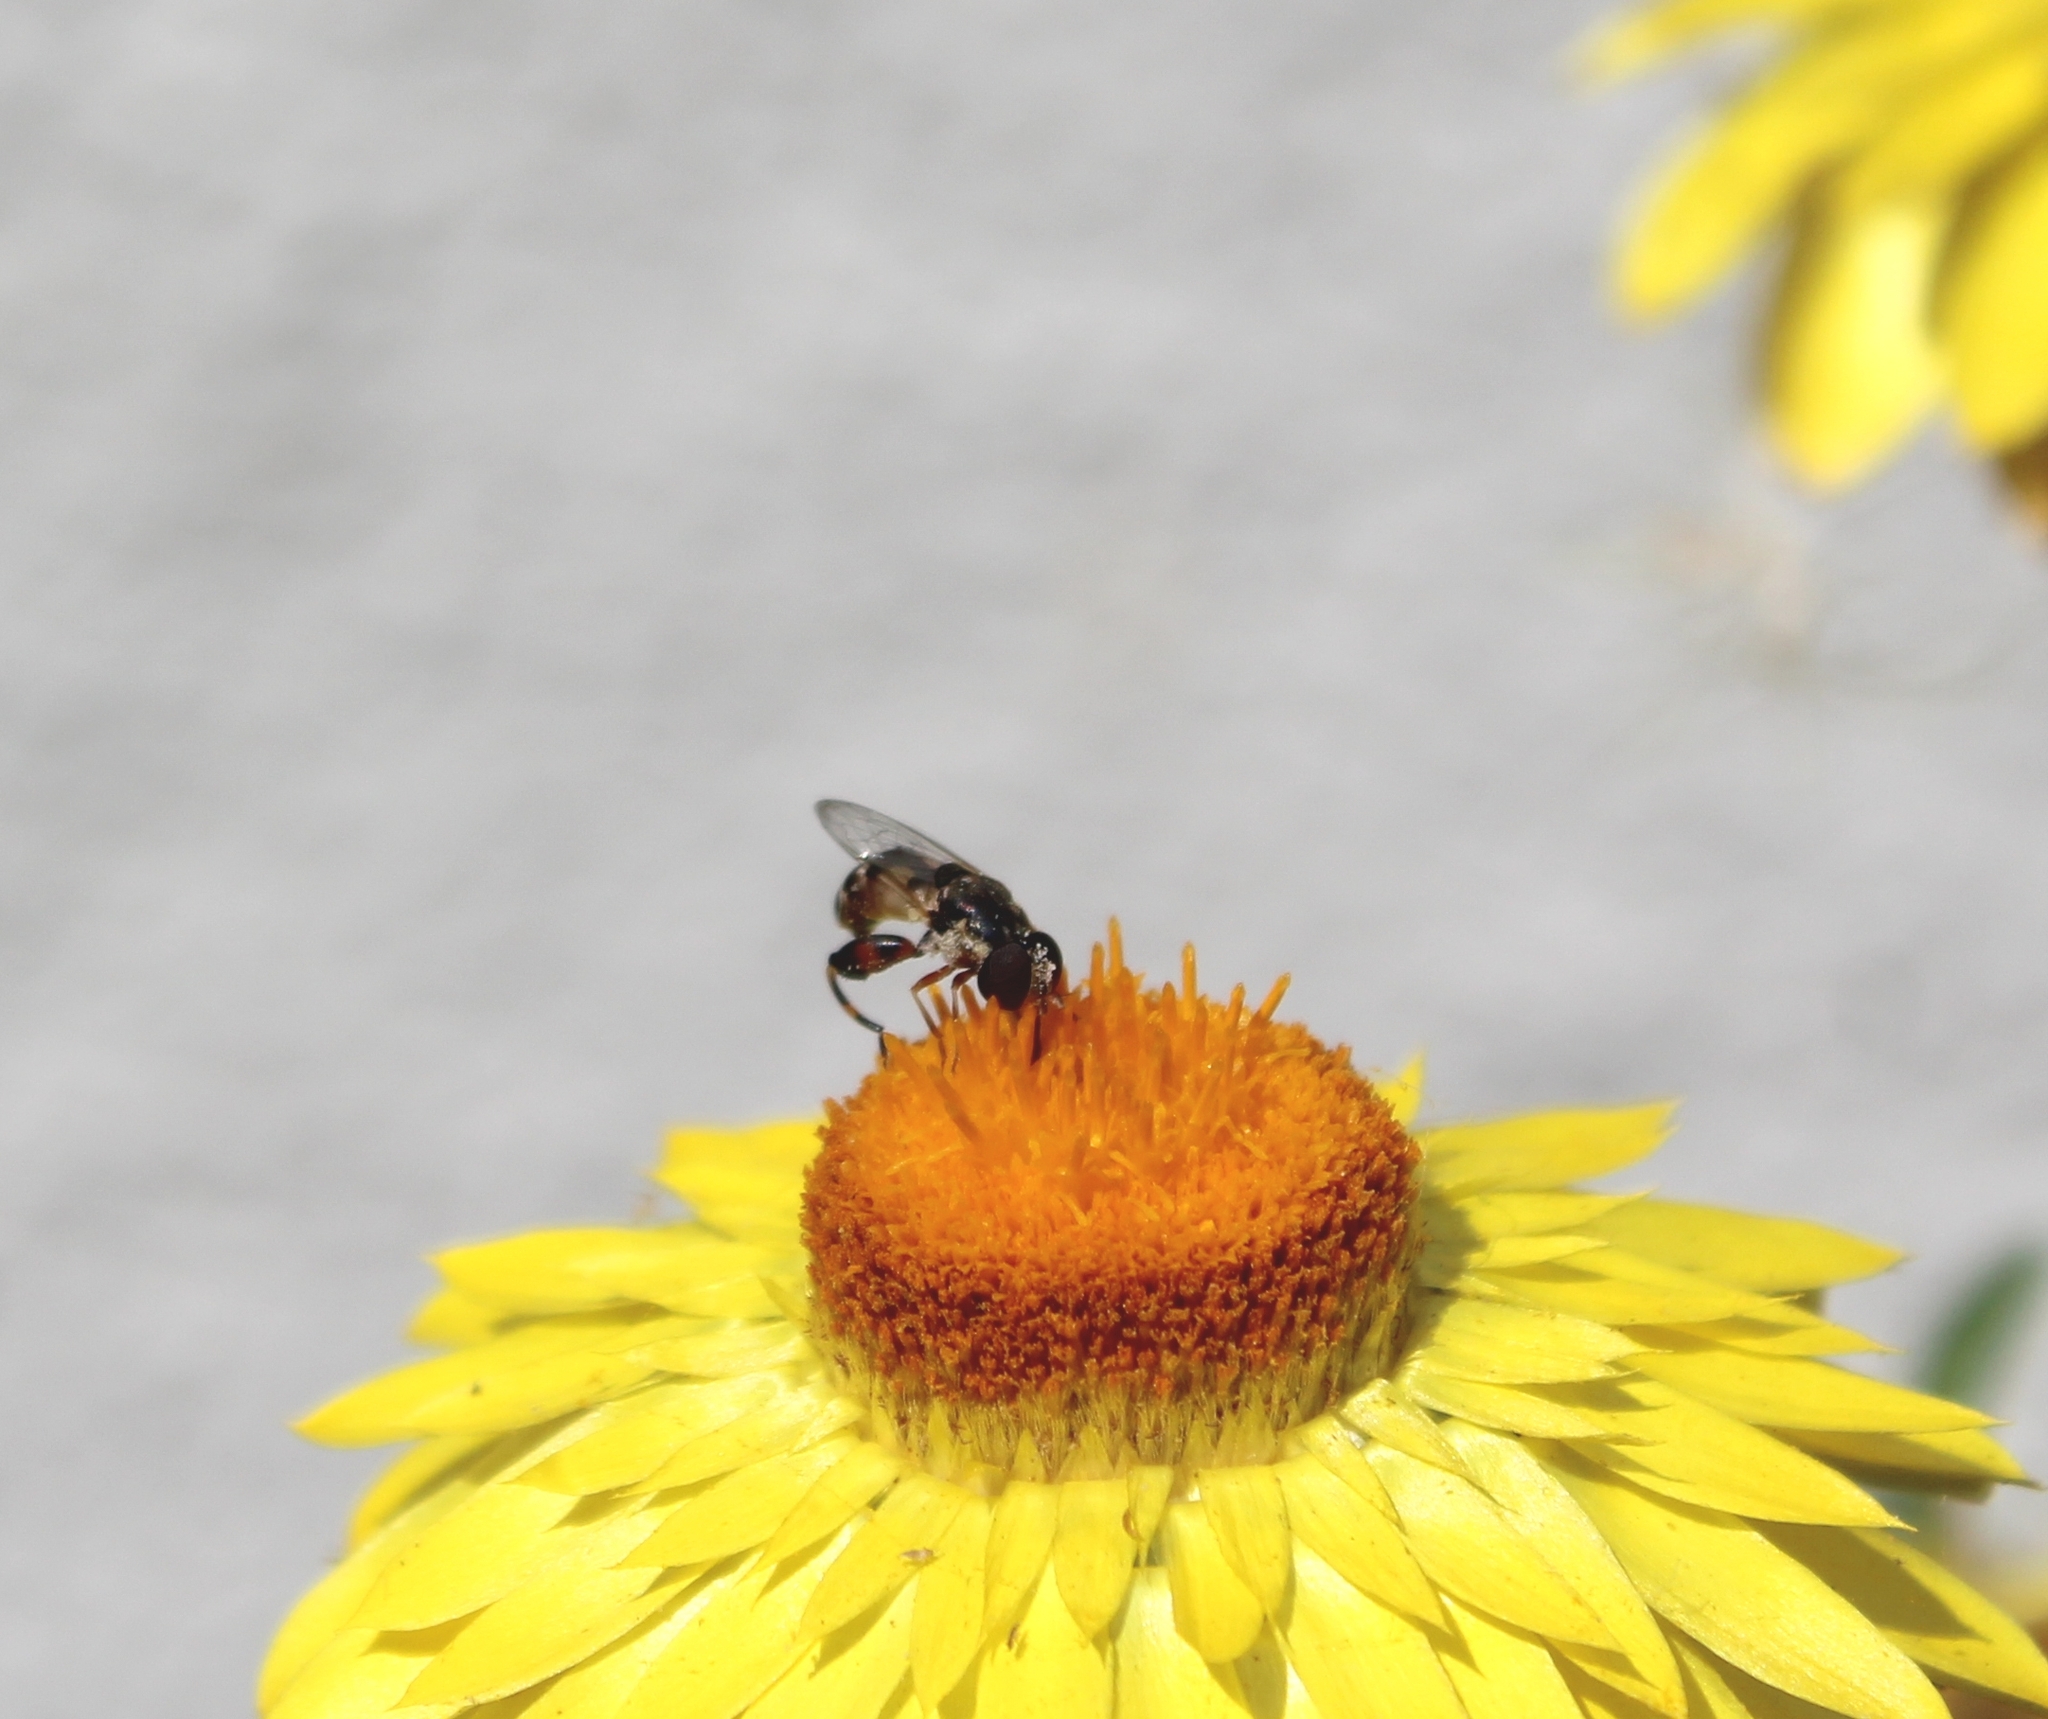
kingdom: Animalia
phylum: Arthropoda
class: Insecta
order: Diptera
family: Syrphidae
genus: Syritta
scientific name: Syritta pipiens
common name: Hover fly
